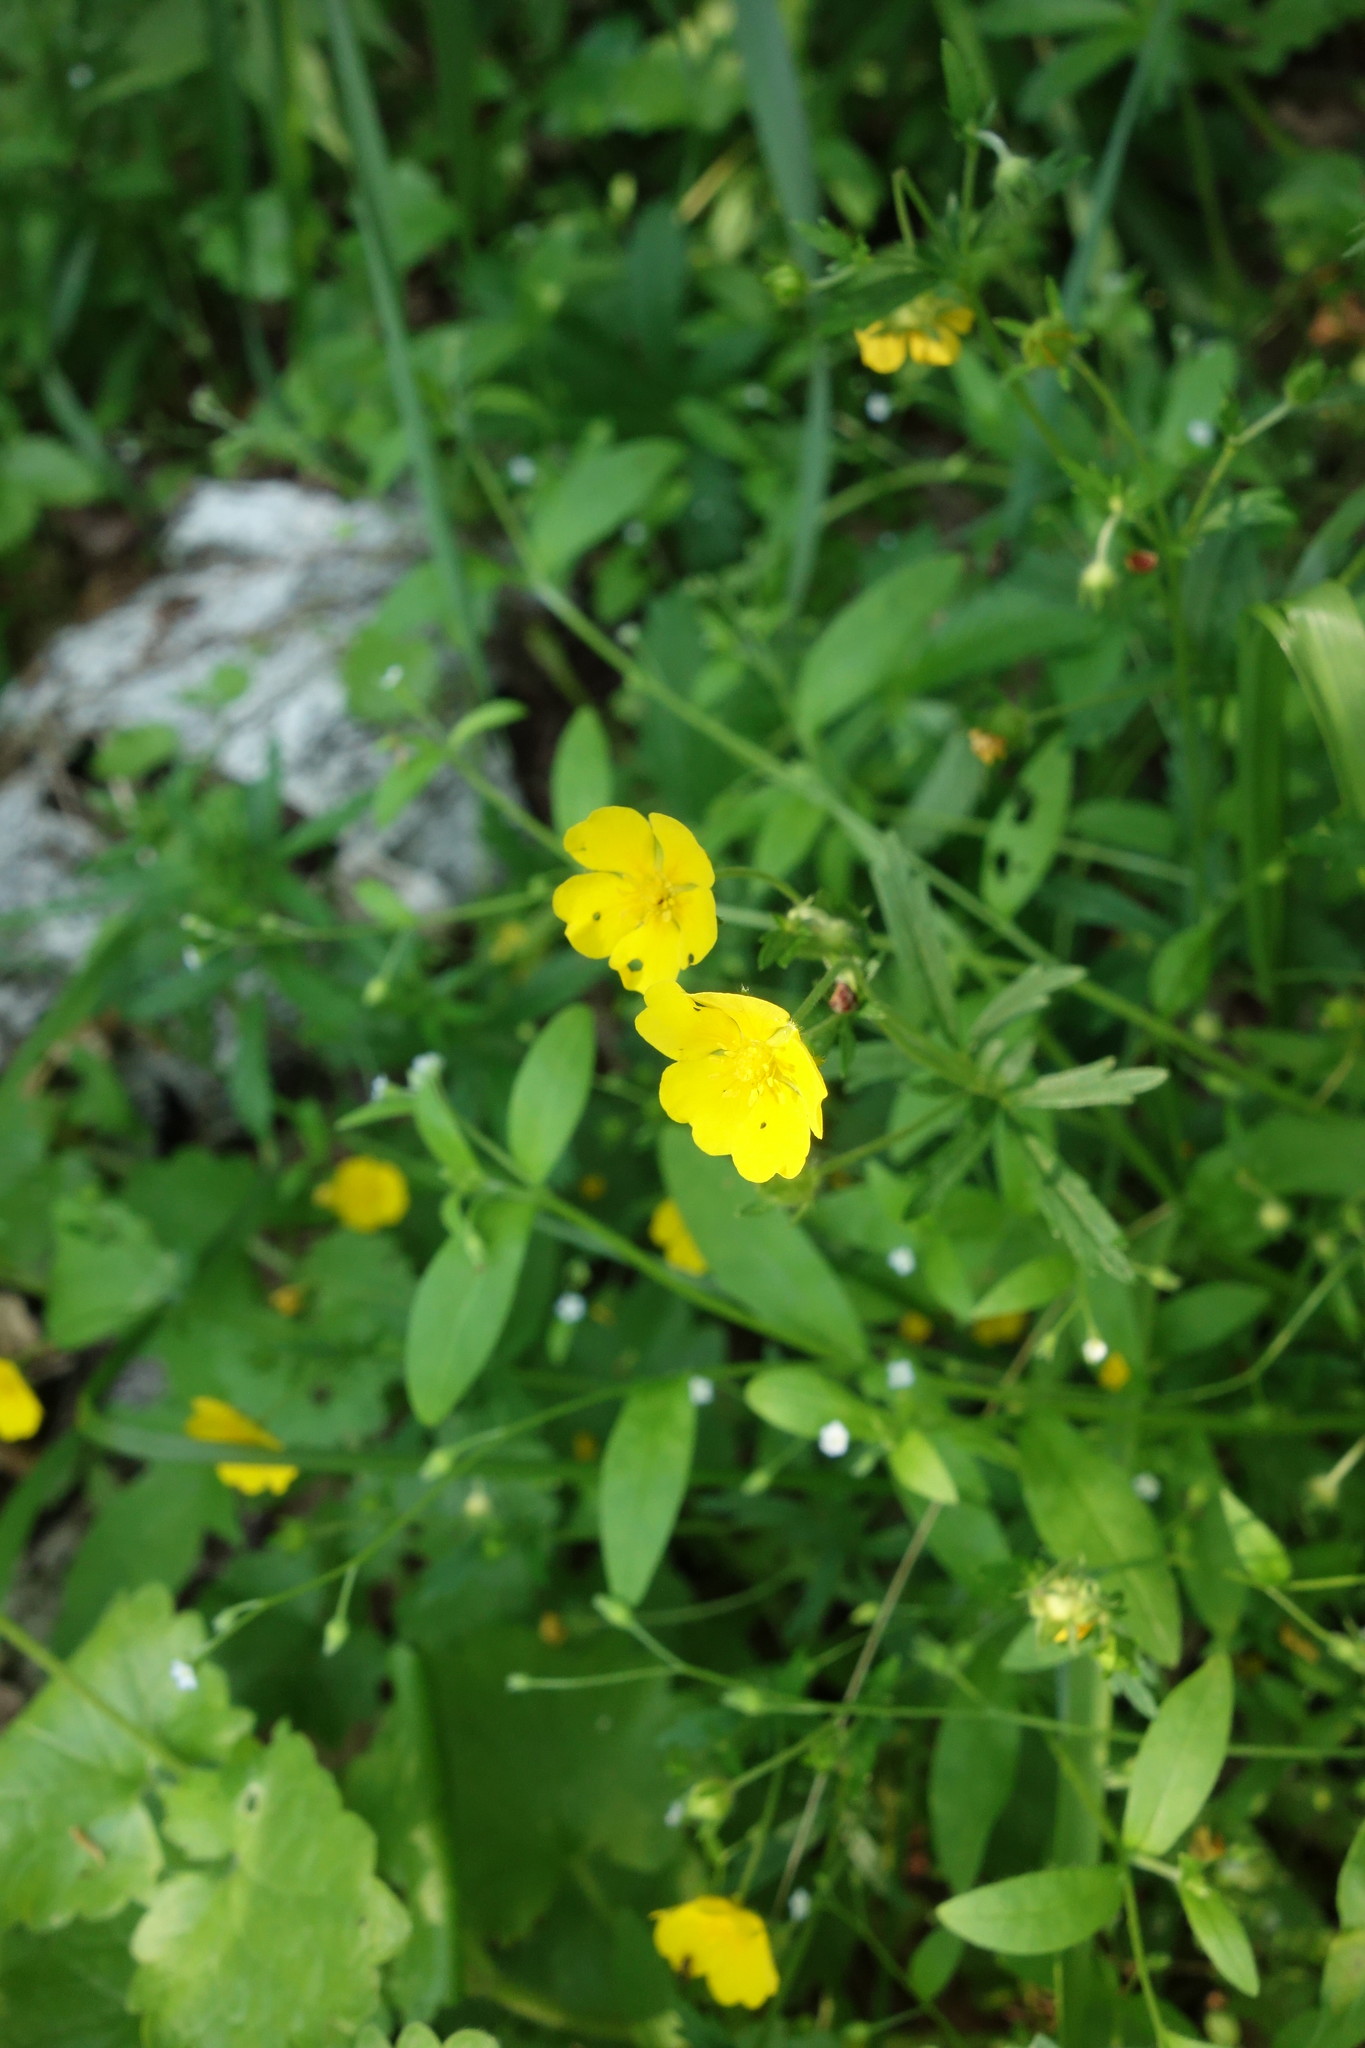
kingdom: Plantae
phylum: Tracheophyta
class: Magnoliopsida
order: Rosales
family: Rosaceae
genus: Potentilla
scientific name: Potentilla thuringiaca
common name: European cinquefoil
